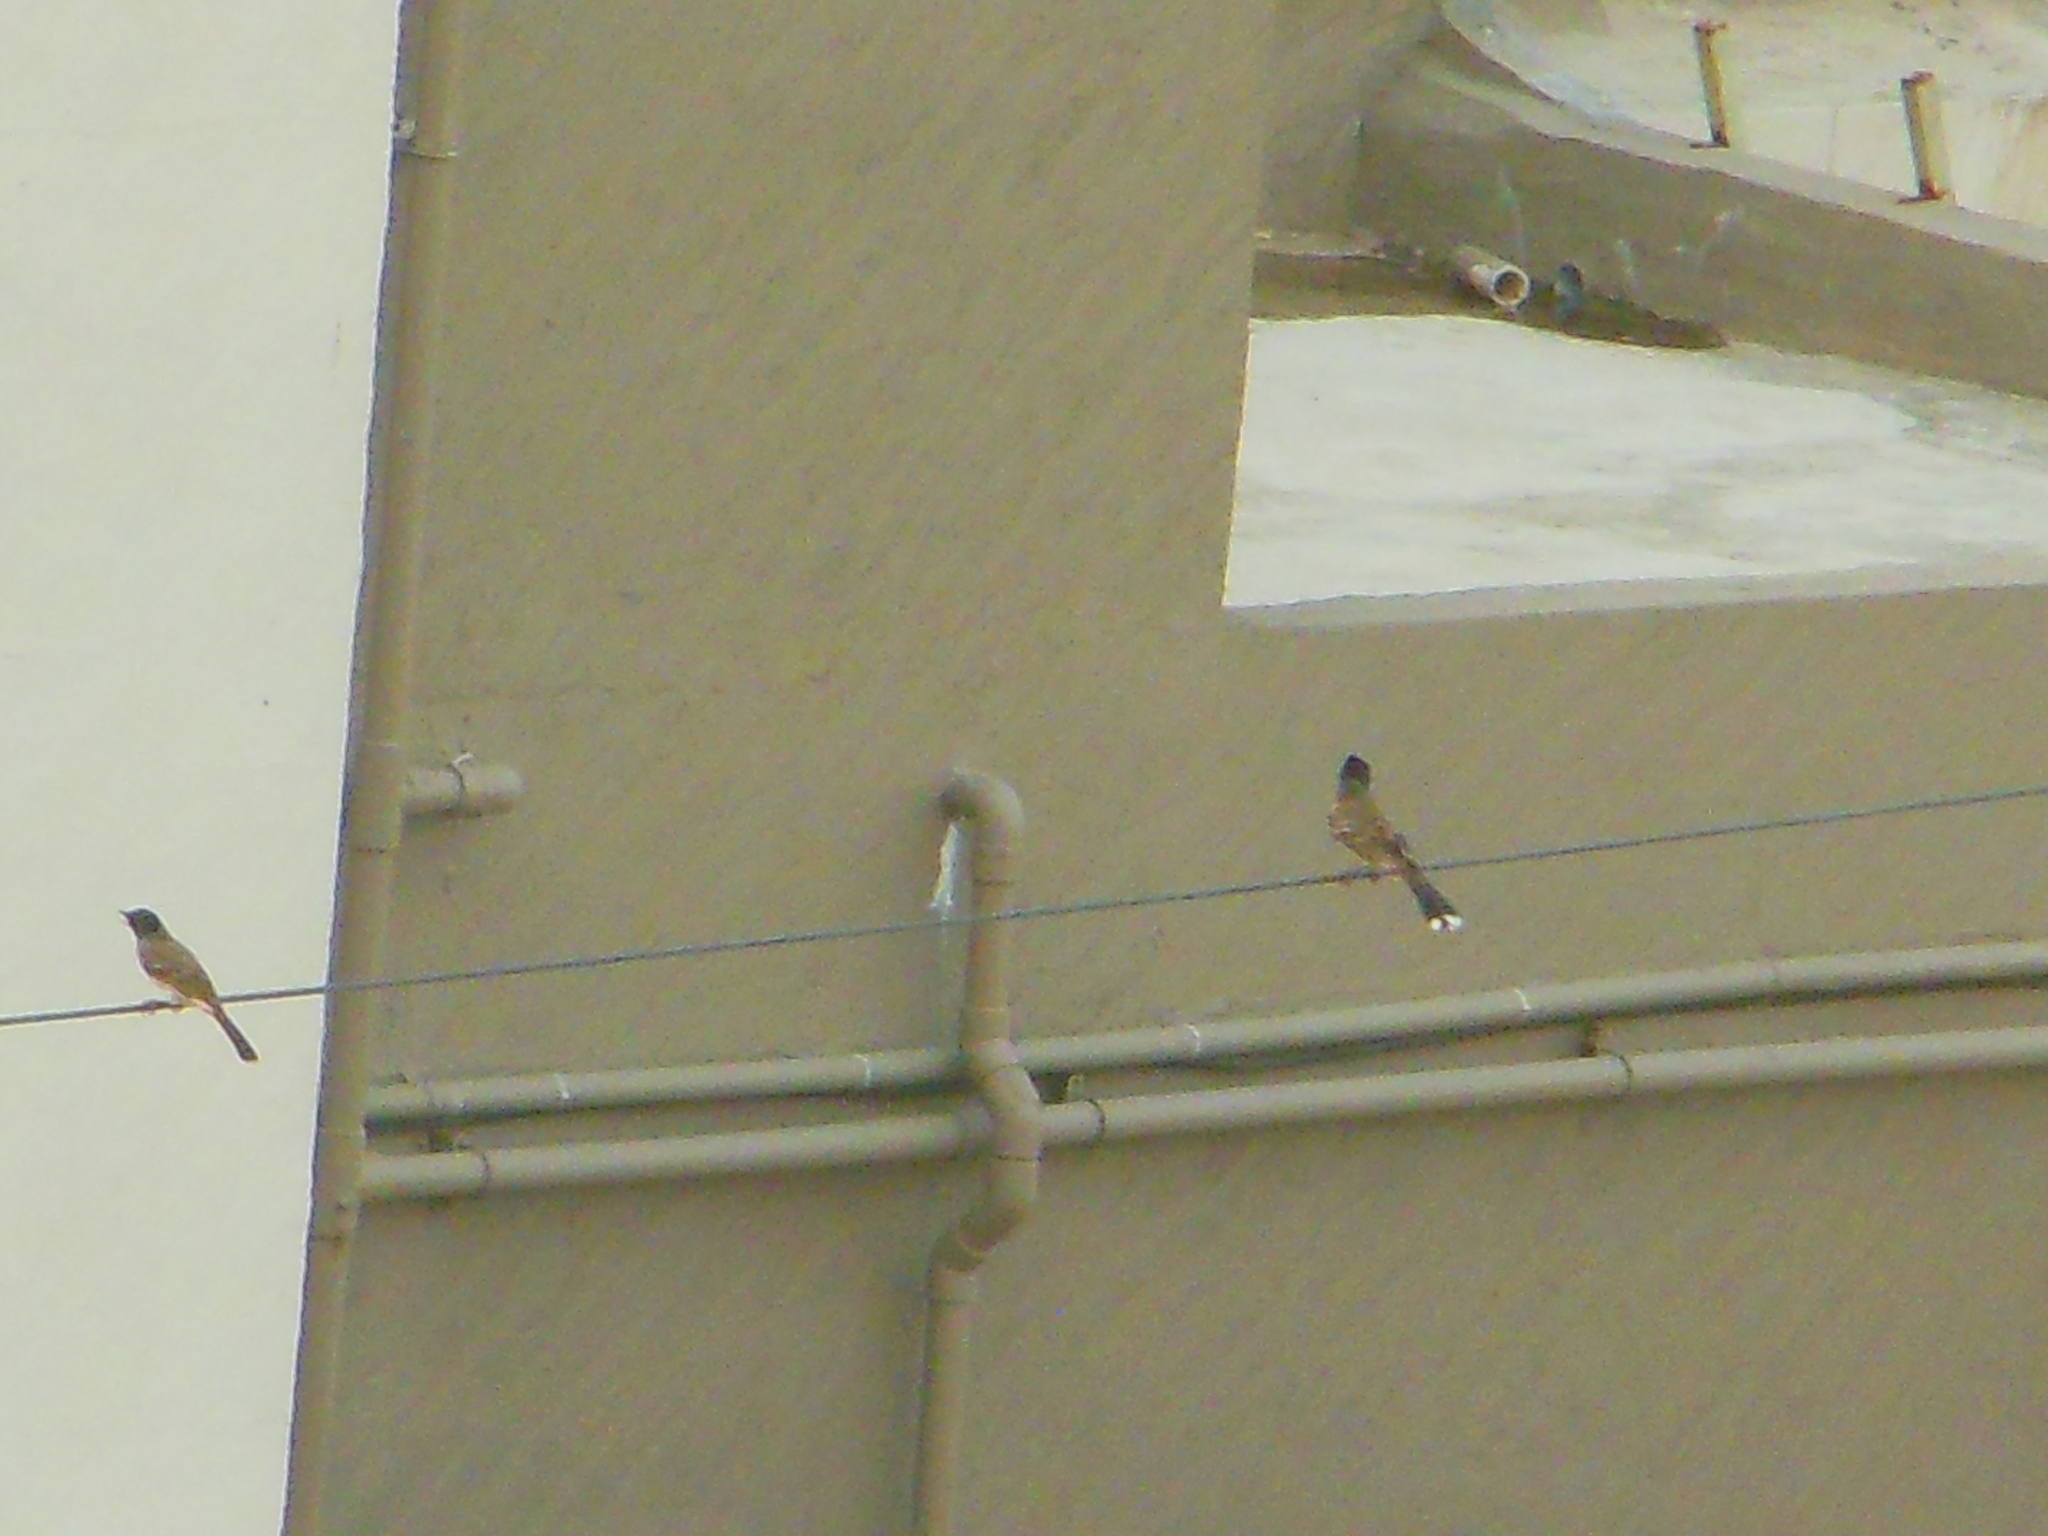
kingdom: Animalia
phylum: Chordata
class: Aves
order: Passeriformes
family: Pycnonotidae
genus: Pycnonotus
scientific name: Pycnonotus cafer
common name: Red-vented bulbul
